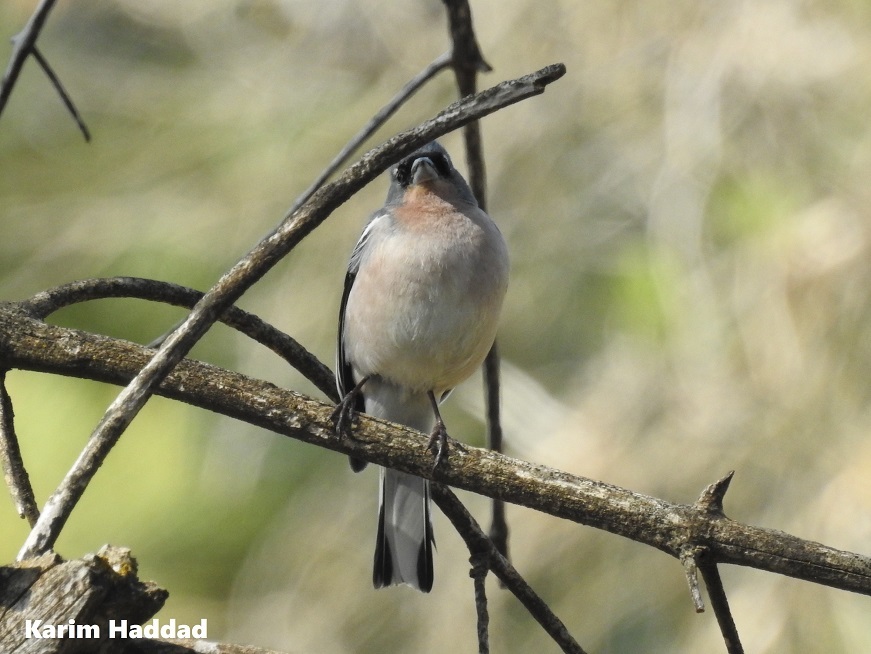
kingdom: Animalia
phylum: Chordata
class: Aves
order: Passeriformes
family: Fringillidae
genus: Fringilla
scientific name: Fringilla spodiogenys
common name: African chaffinch
